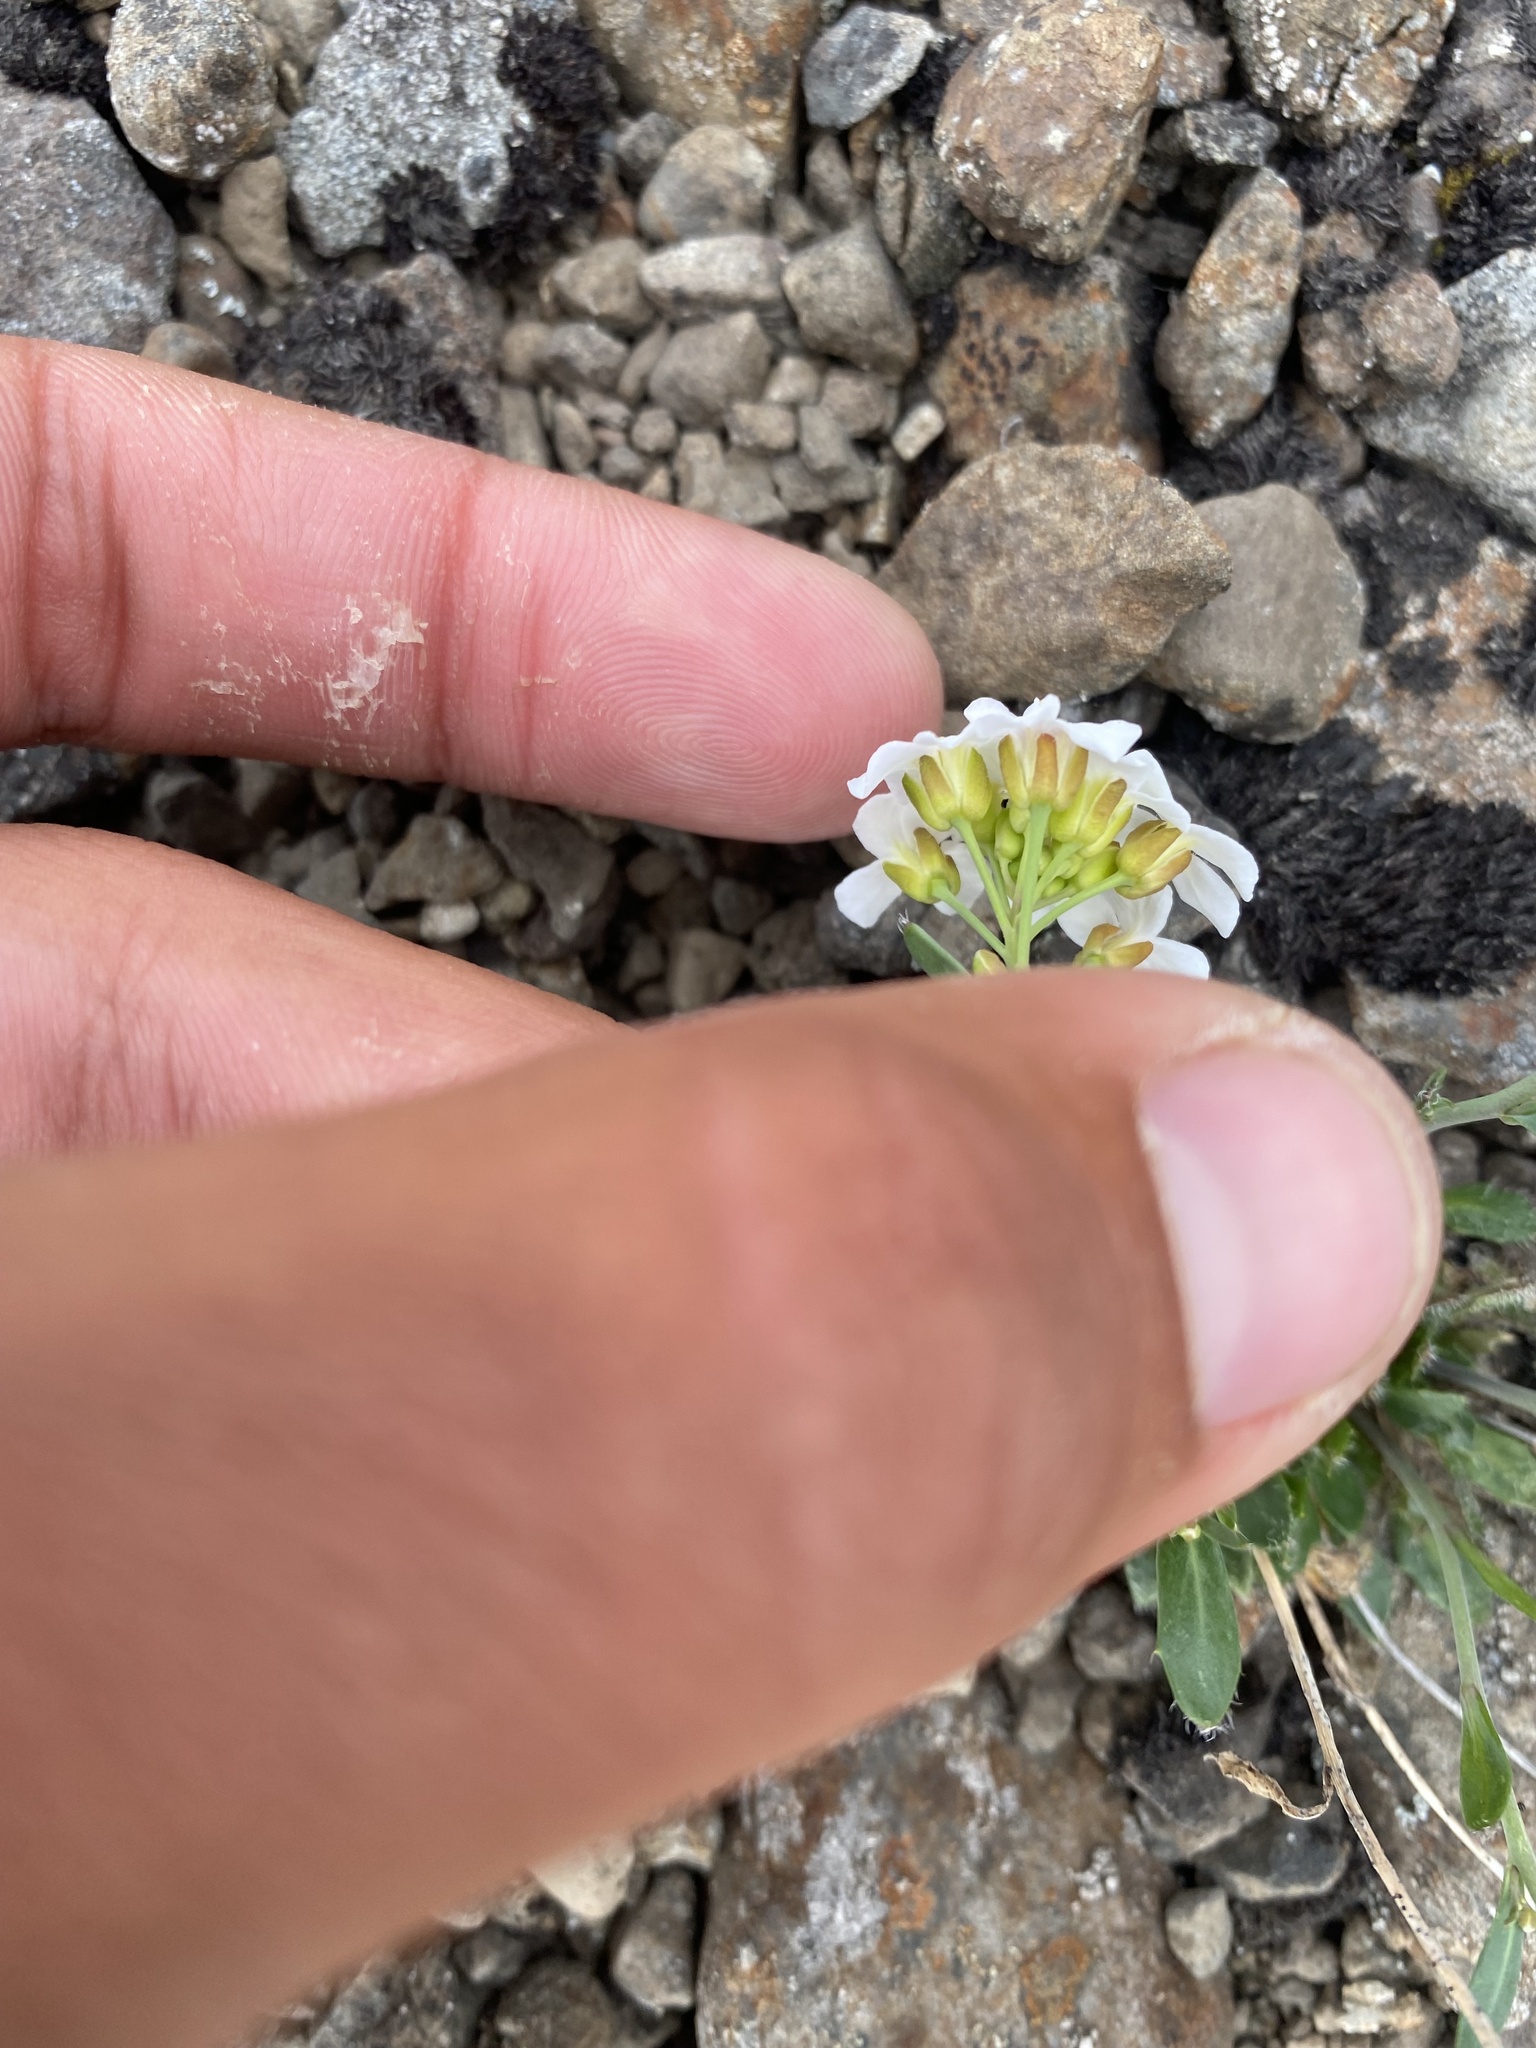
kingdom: Plantae
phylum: Tracheophyta
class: Magnoliopsida
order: Brassicales
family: Brassicaceae
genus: Arabidopsis
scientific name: Arabidopsis lyrata
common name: Lyrate rockcress
